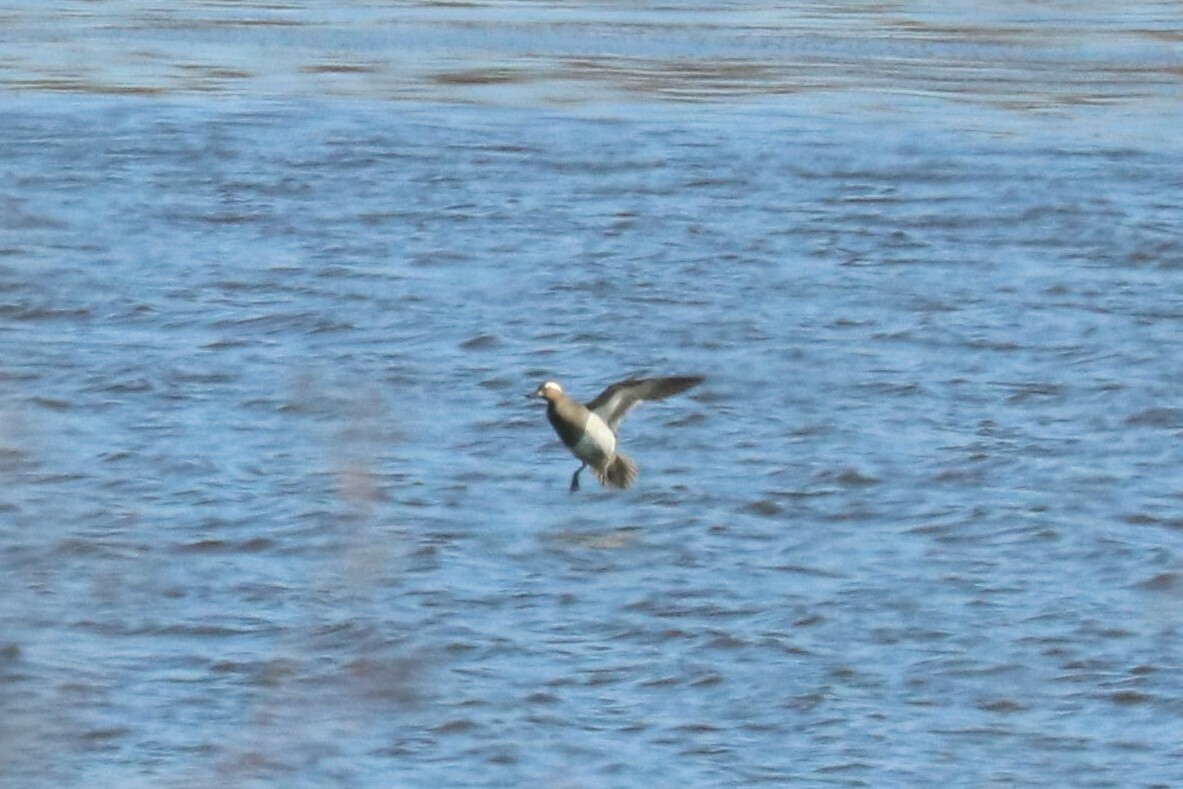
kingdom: Animalia
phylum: Chordata
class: Aves
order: Anseriformes
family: Anatidae
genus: Spatula
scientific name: Spatula querquedula
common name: Garganey
